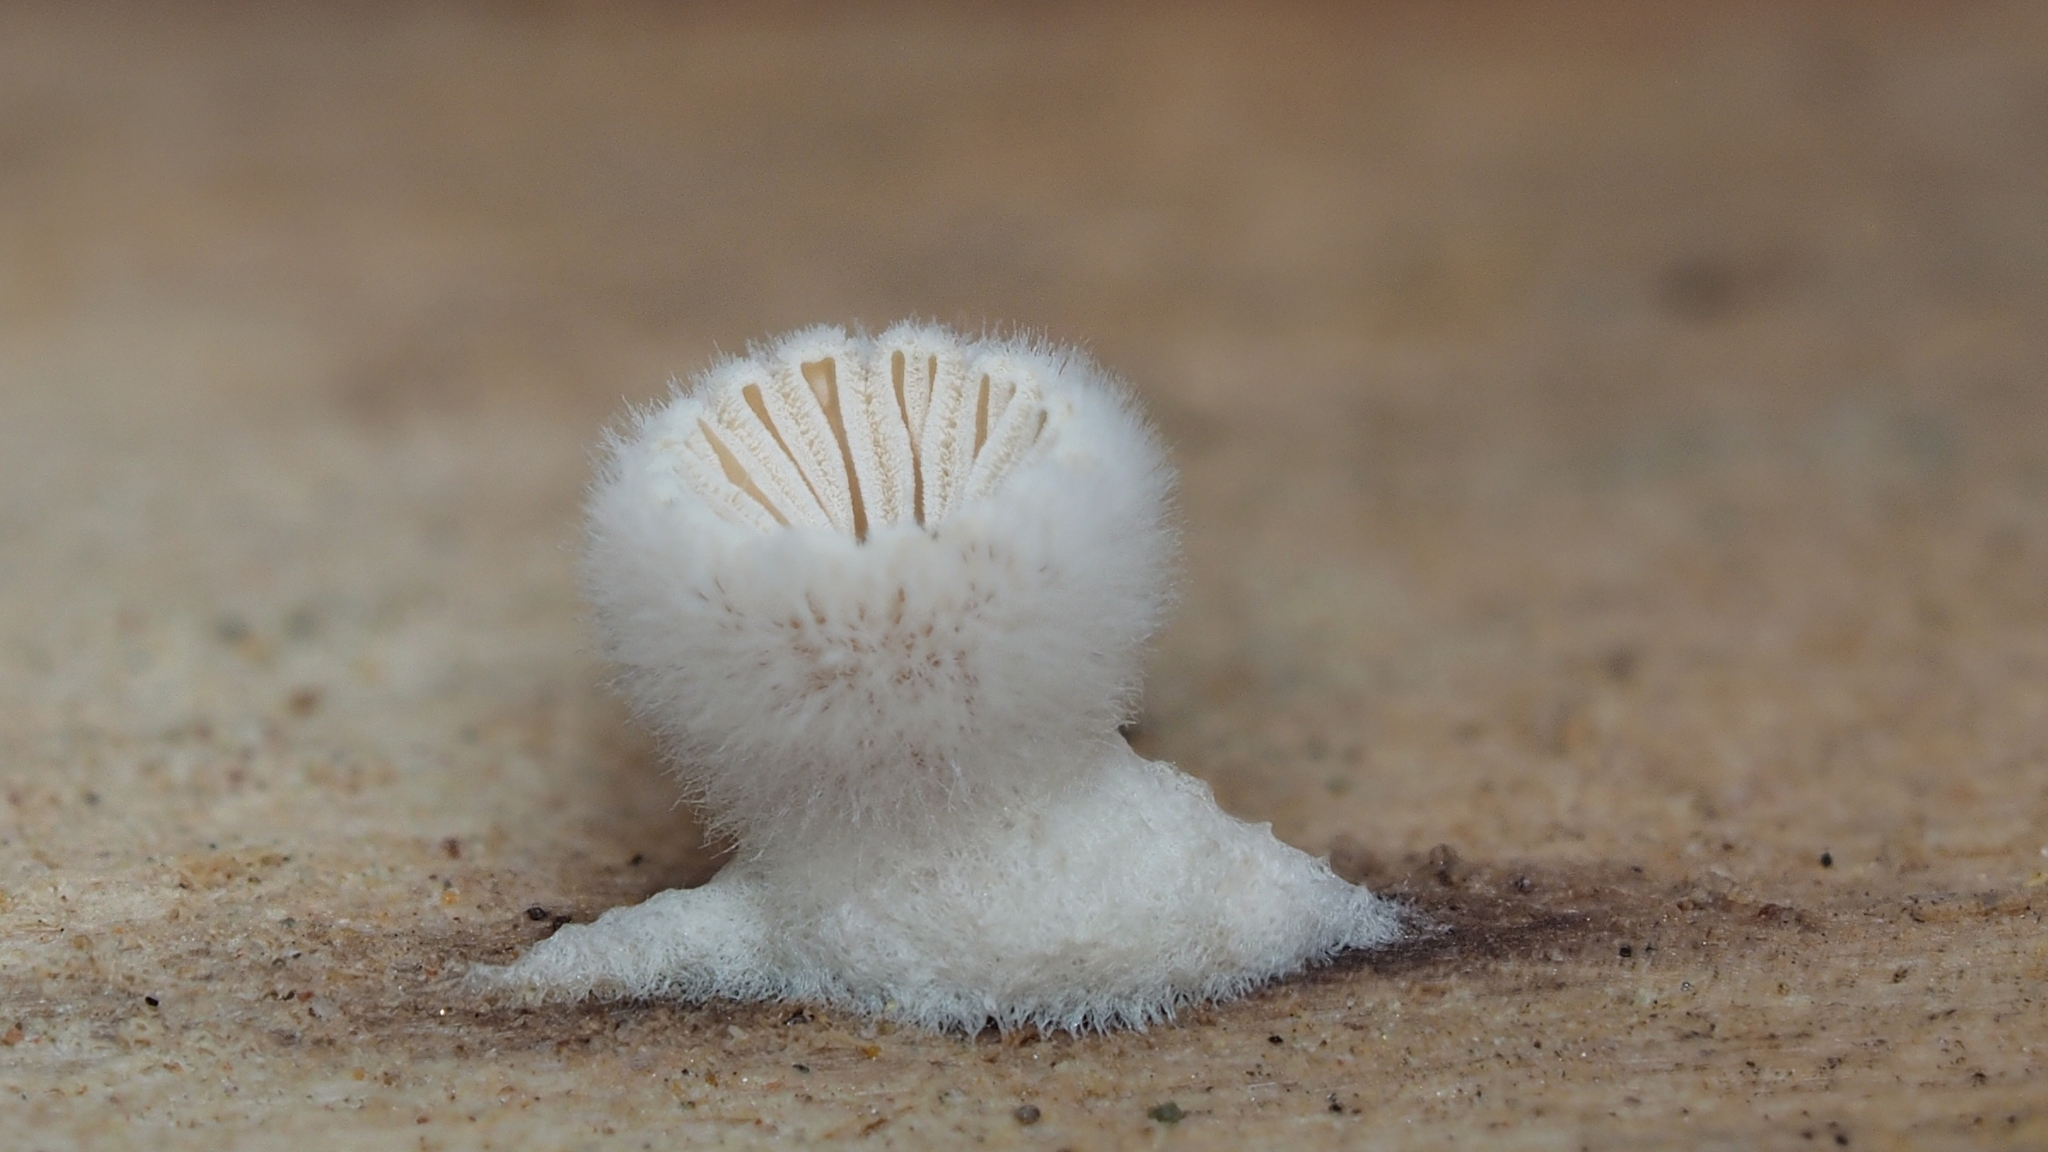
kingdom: Fungi
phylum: Basidiomycota
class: Agaricomycetes
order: Agaricales
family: Schizophyllaceae
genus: Schizophyllum
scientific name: Schizophyllum commune
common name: Common porecrust
